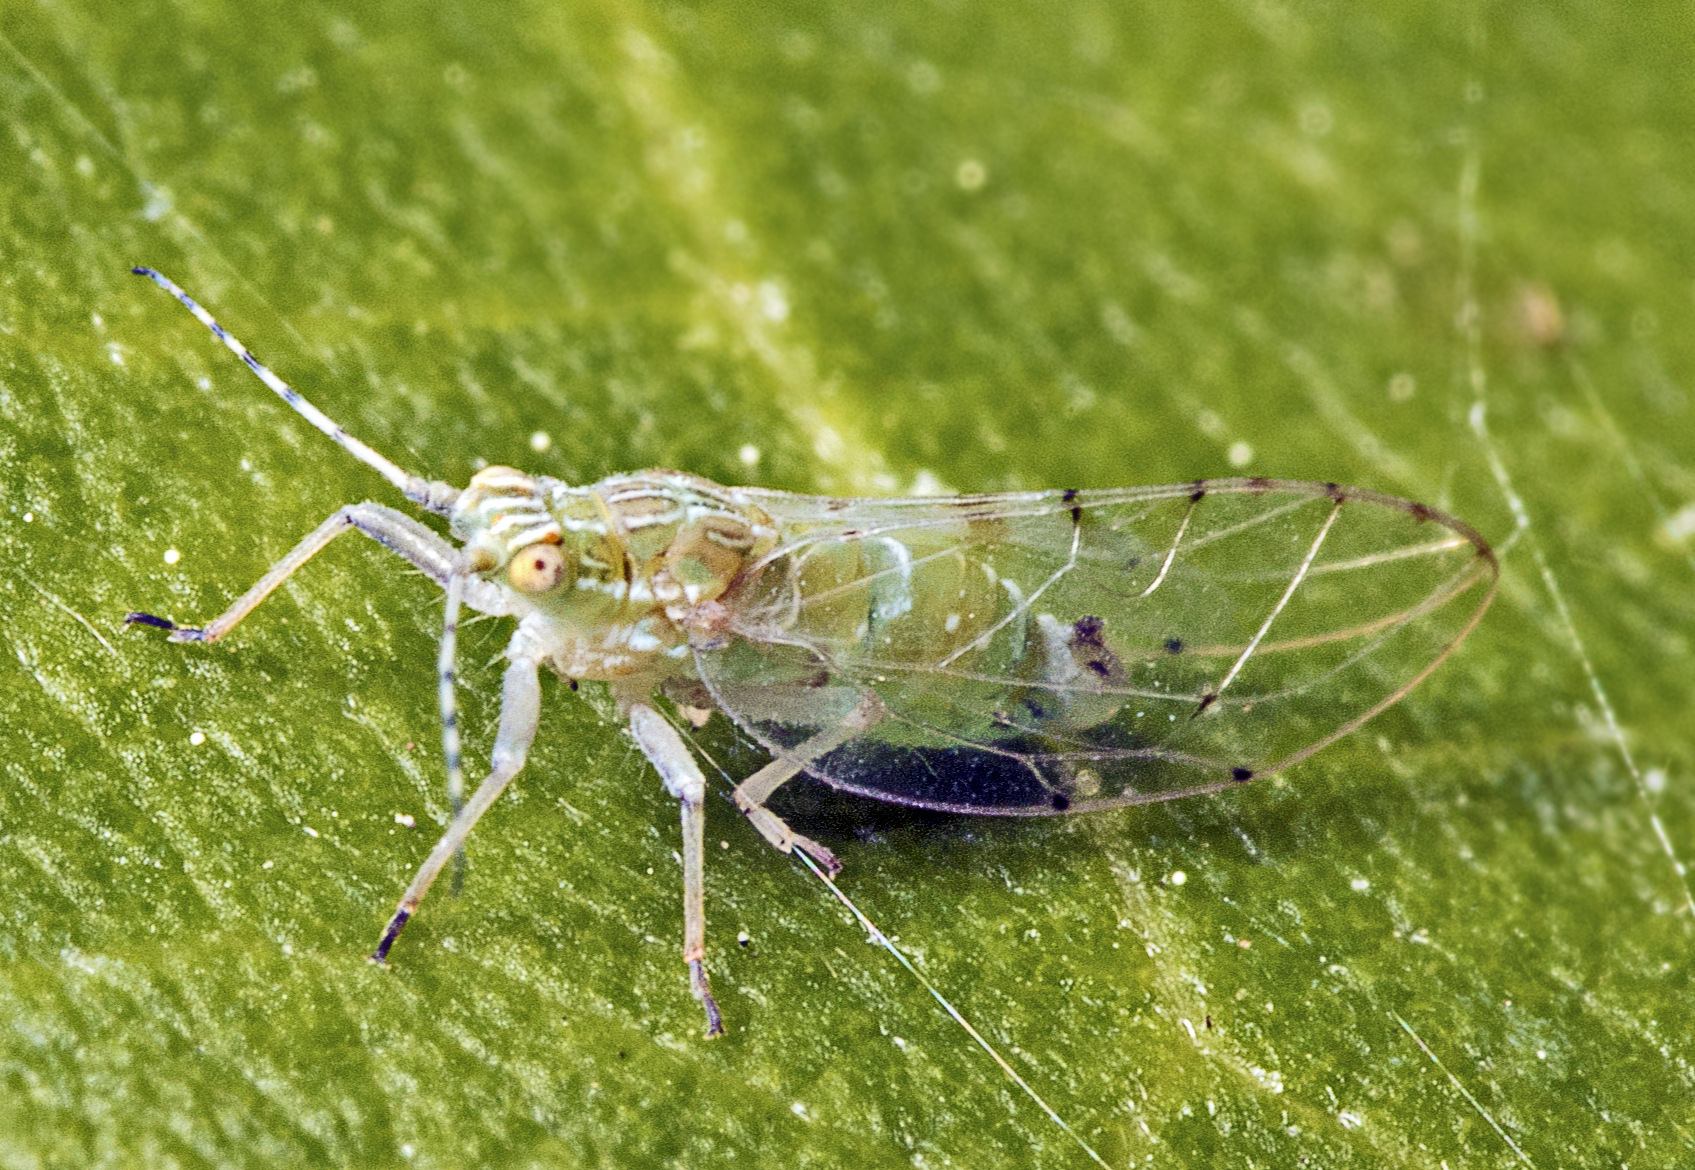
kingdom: Animalia
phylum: Arthropoda
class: Insecta
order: Hemiptera
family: Carsidaridae
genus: Mesohomotoma
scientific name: Mesohomotoma hibisci
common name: Psyllid
